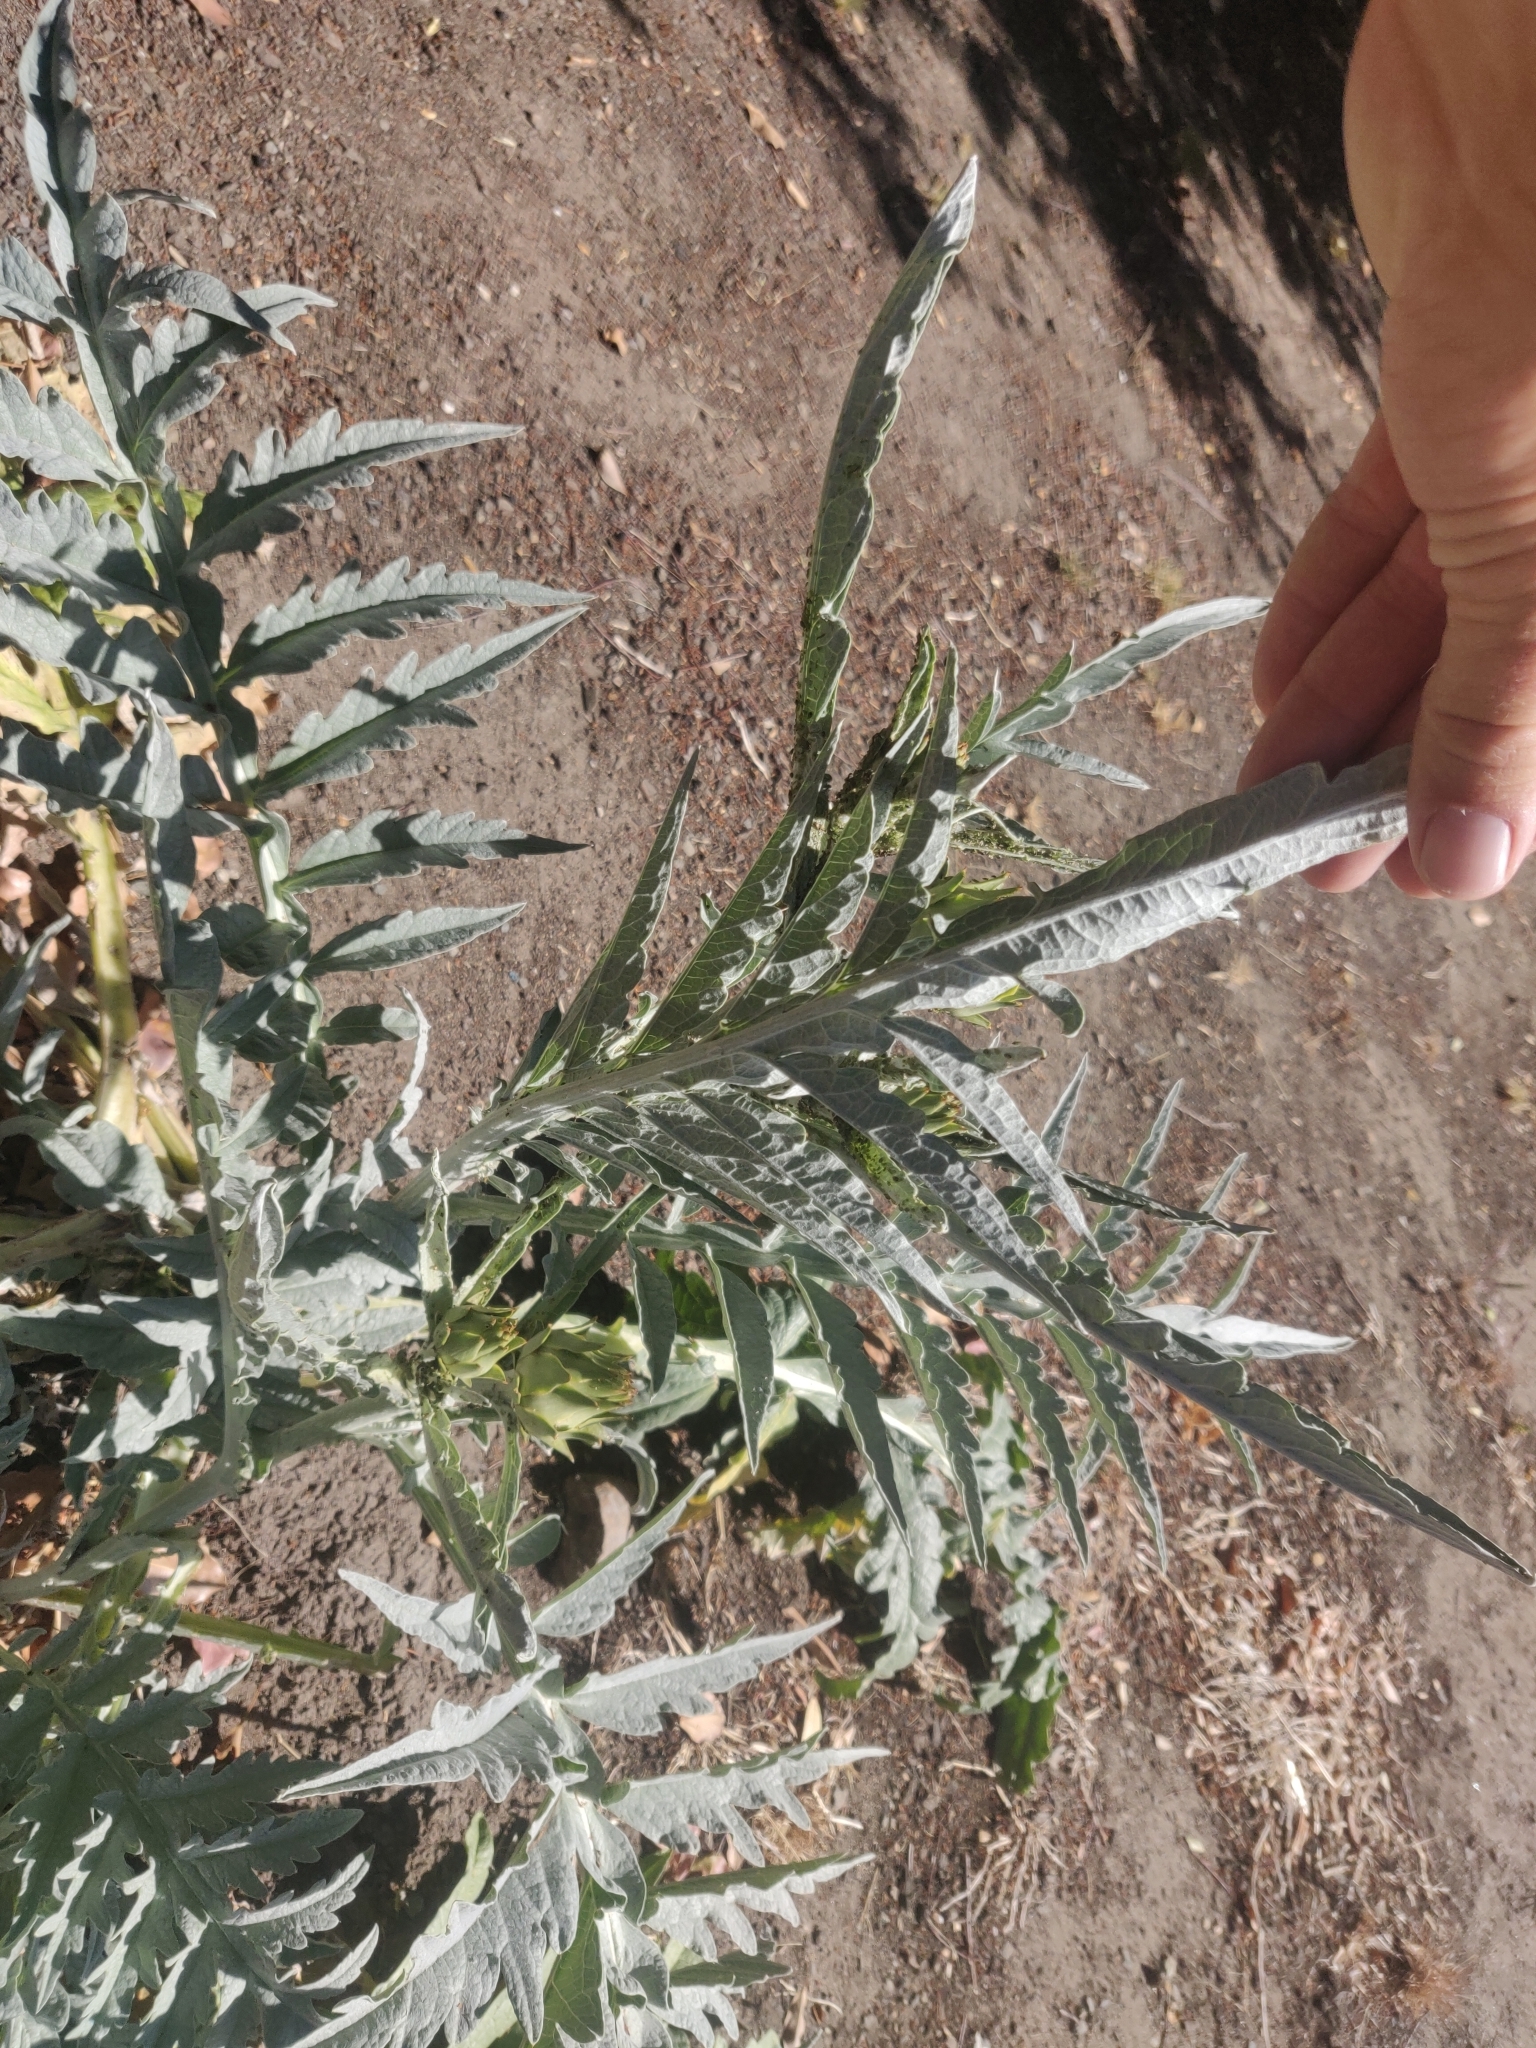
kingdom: Plantae
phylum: Tracheophyta
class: Magnoliopsida
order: Asterales
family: Asteraceae
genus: Cynara
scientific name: Cynara cardunculus
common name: Globe artichoke
